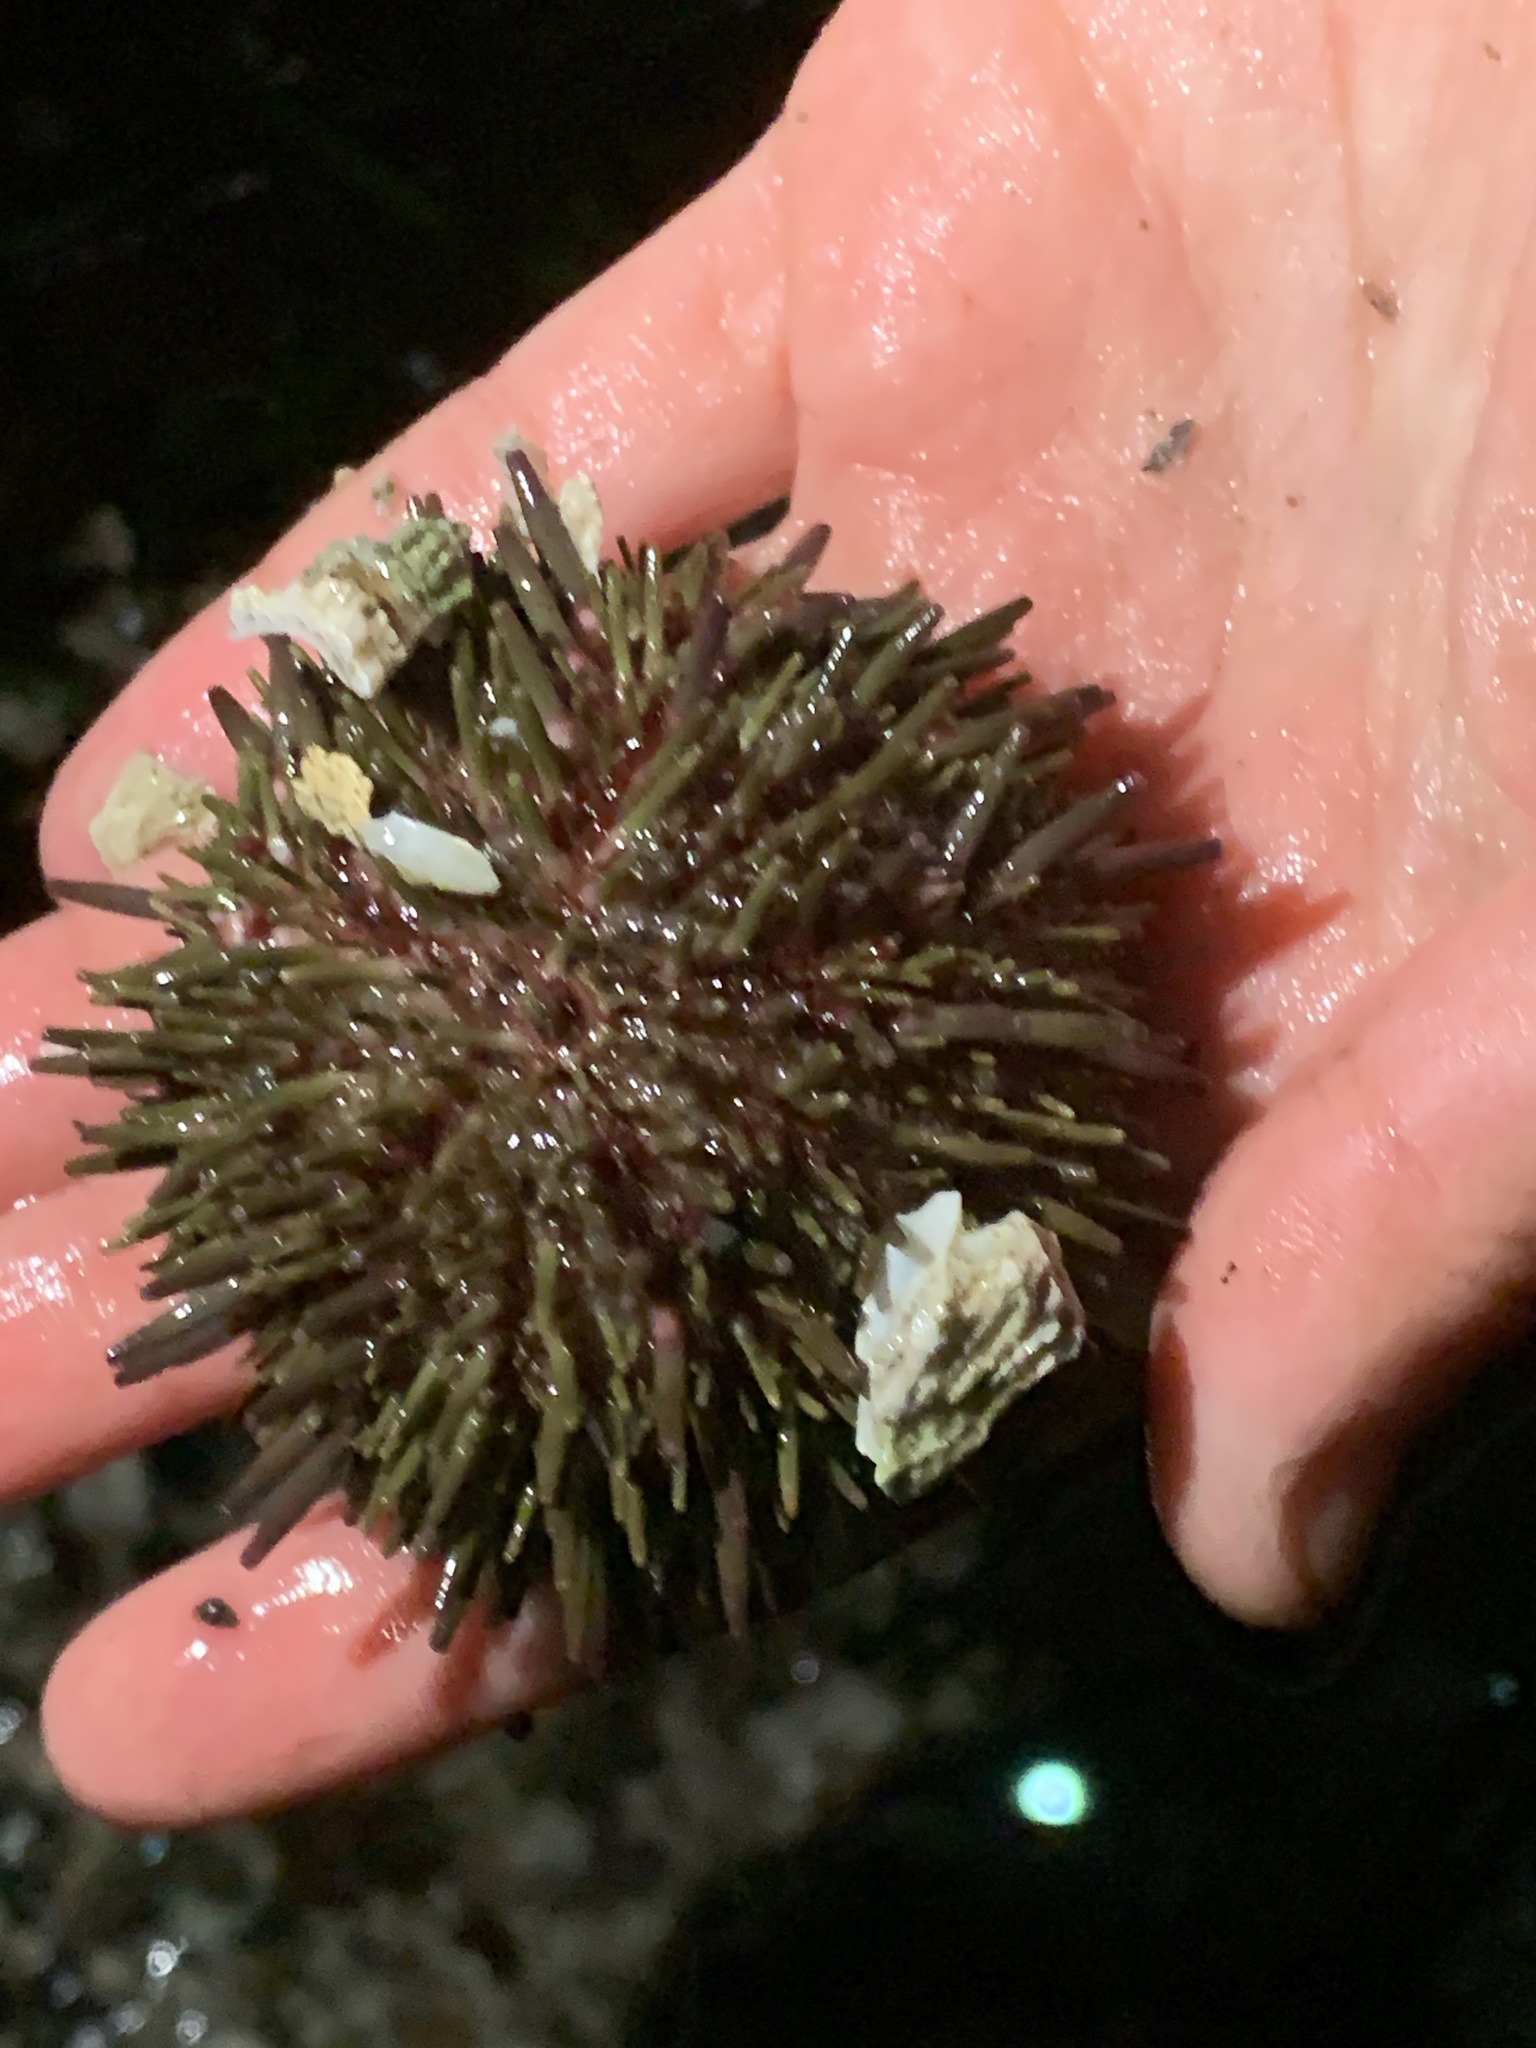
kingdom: Animalia
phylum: Echinodermata
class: Echinoidea
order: Camarodonta
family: Strongylocentrotidae
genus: Strongylocentrotus
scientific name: Strongylocentrotus droebachiensis
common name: Northern sea urchin
